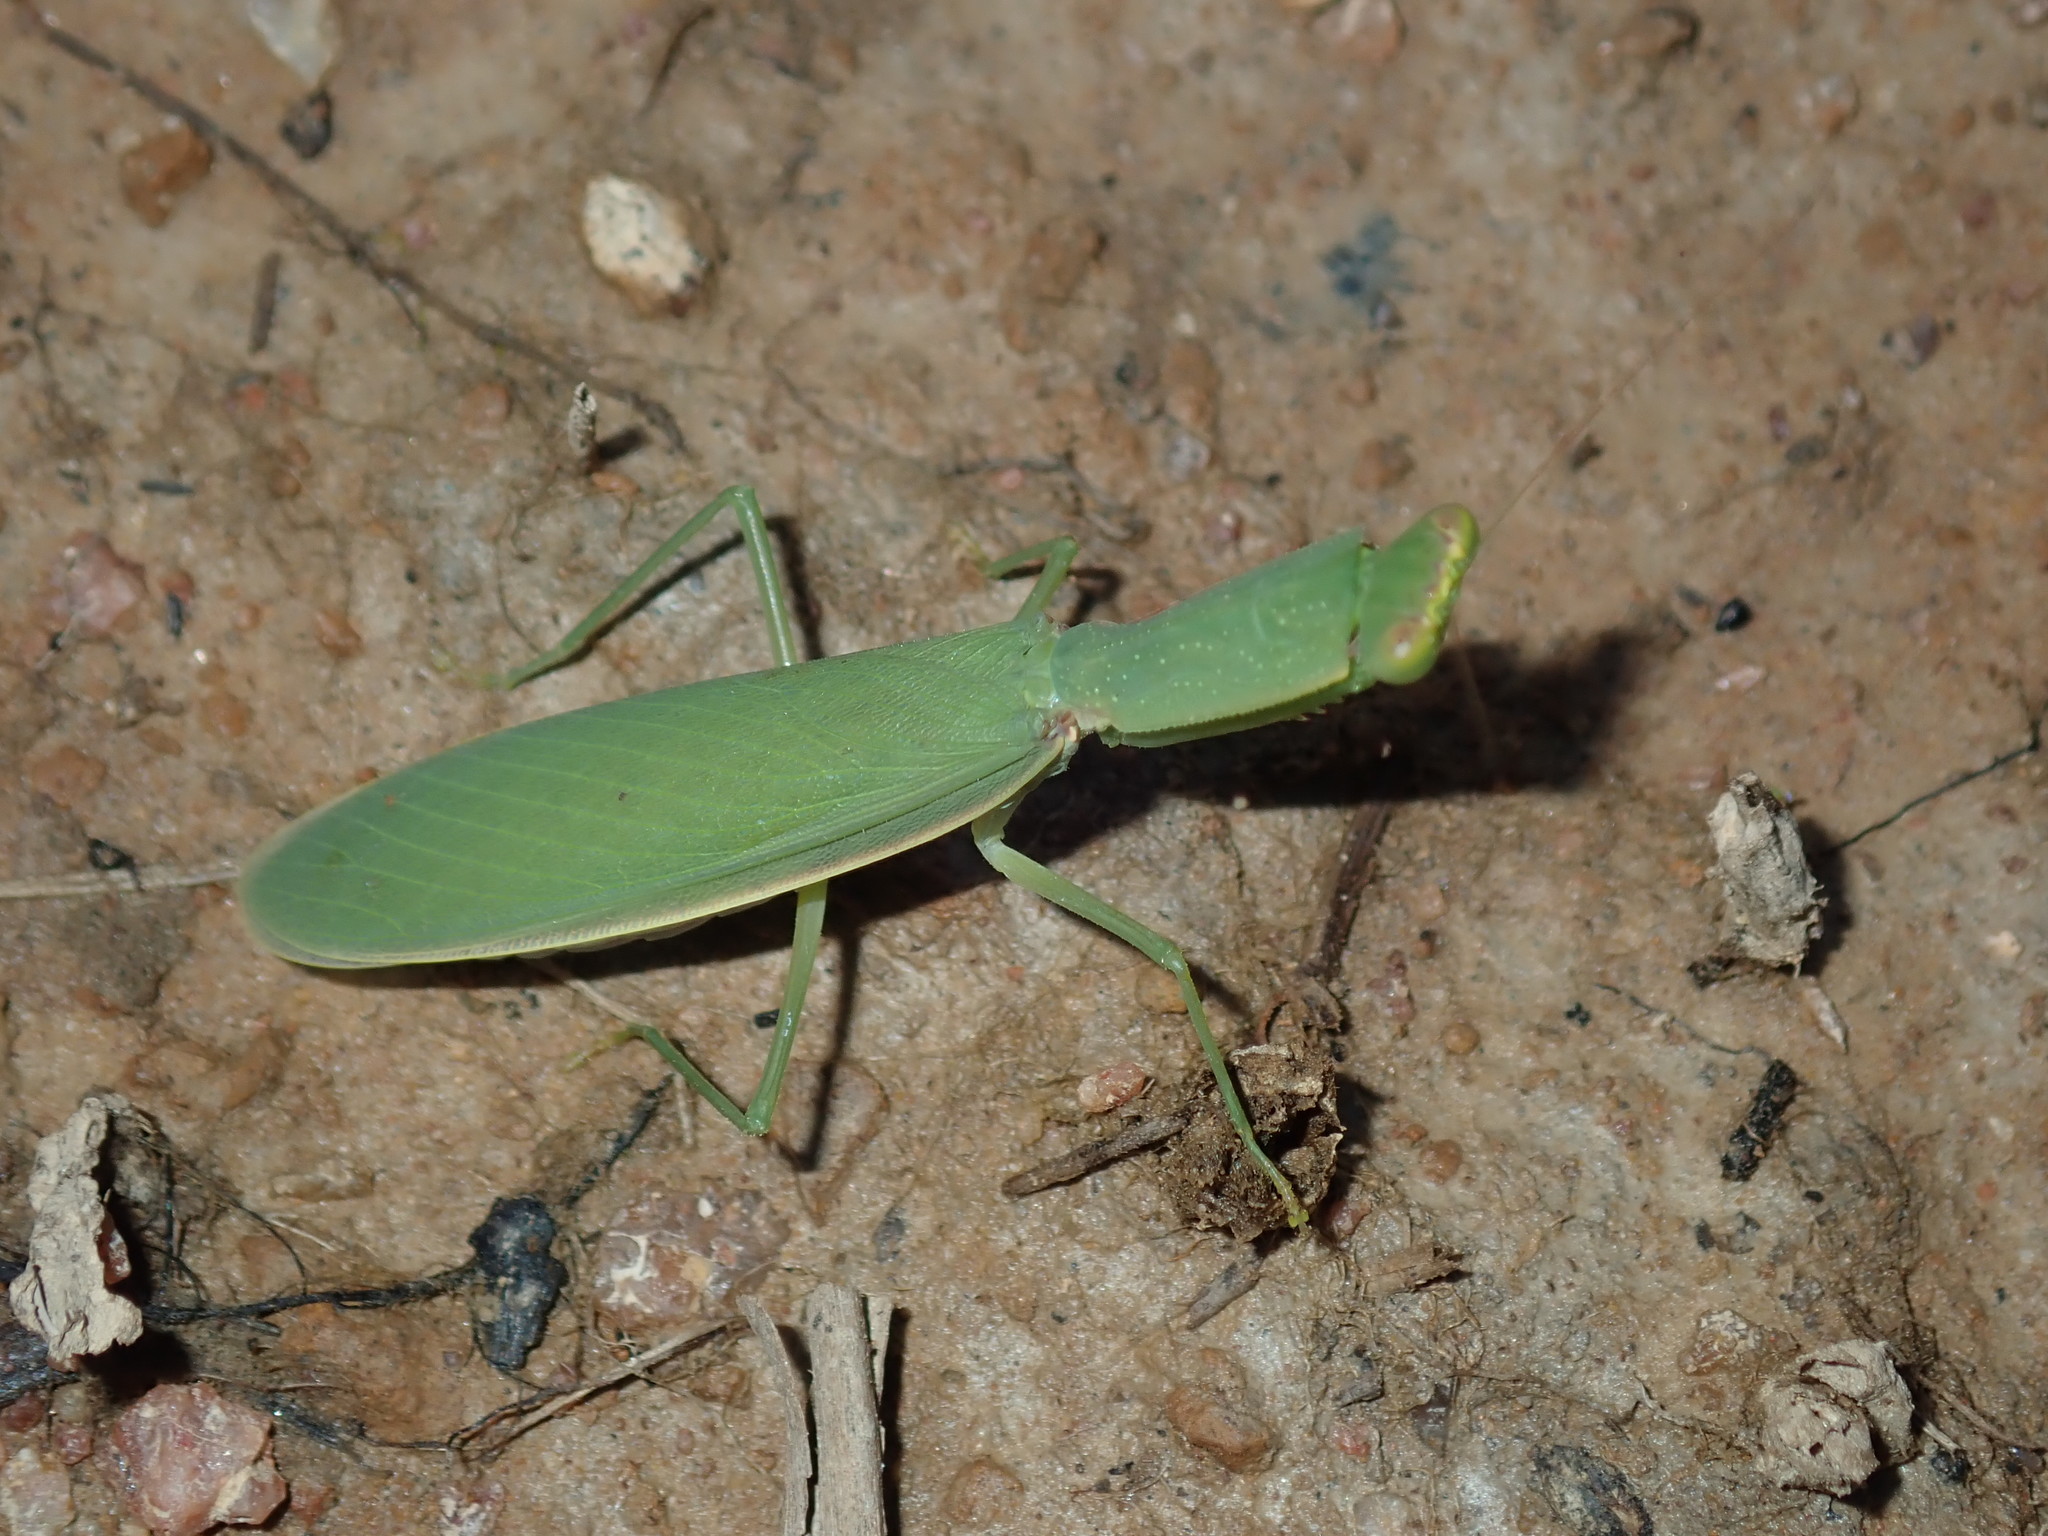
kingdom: Animalia
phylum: Arthropoda
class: Insecta
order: Mantodea
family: Mantidae
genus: Orthodera
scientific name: Orthodera ministralis
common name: Mantis
